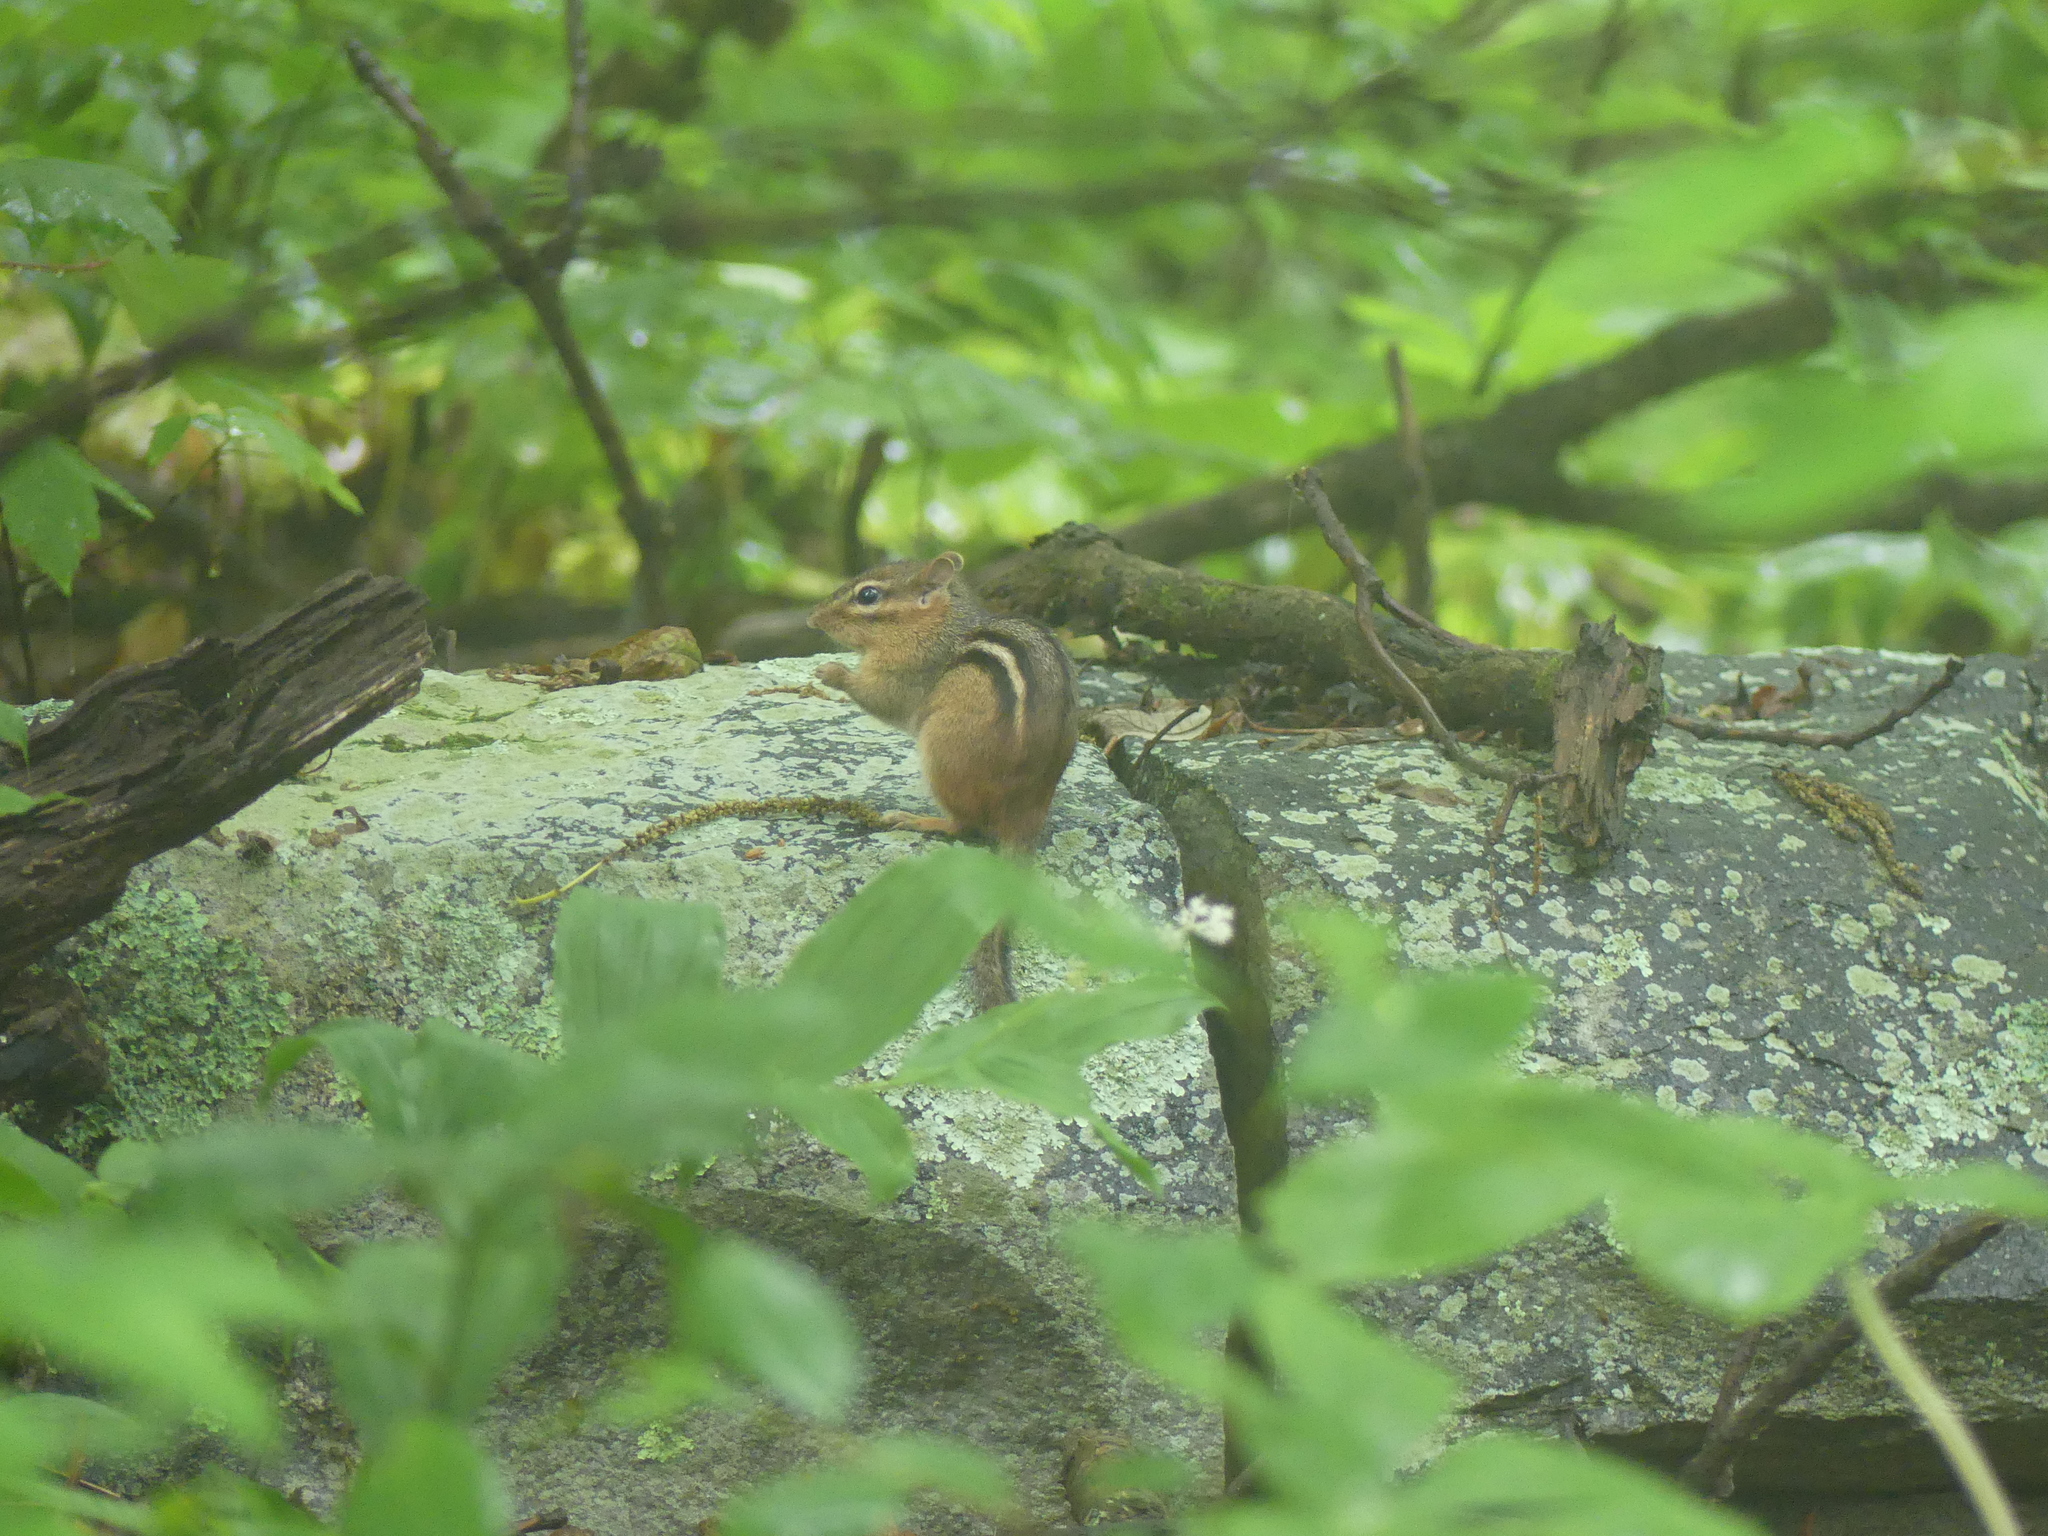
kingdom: Animalia
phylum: Chordata
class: Mammalia
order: Rodentia
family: Sciuridae
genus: Tamias
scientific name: Tamias striatus
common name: Eastern chipmunk
